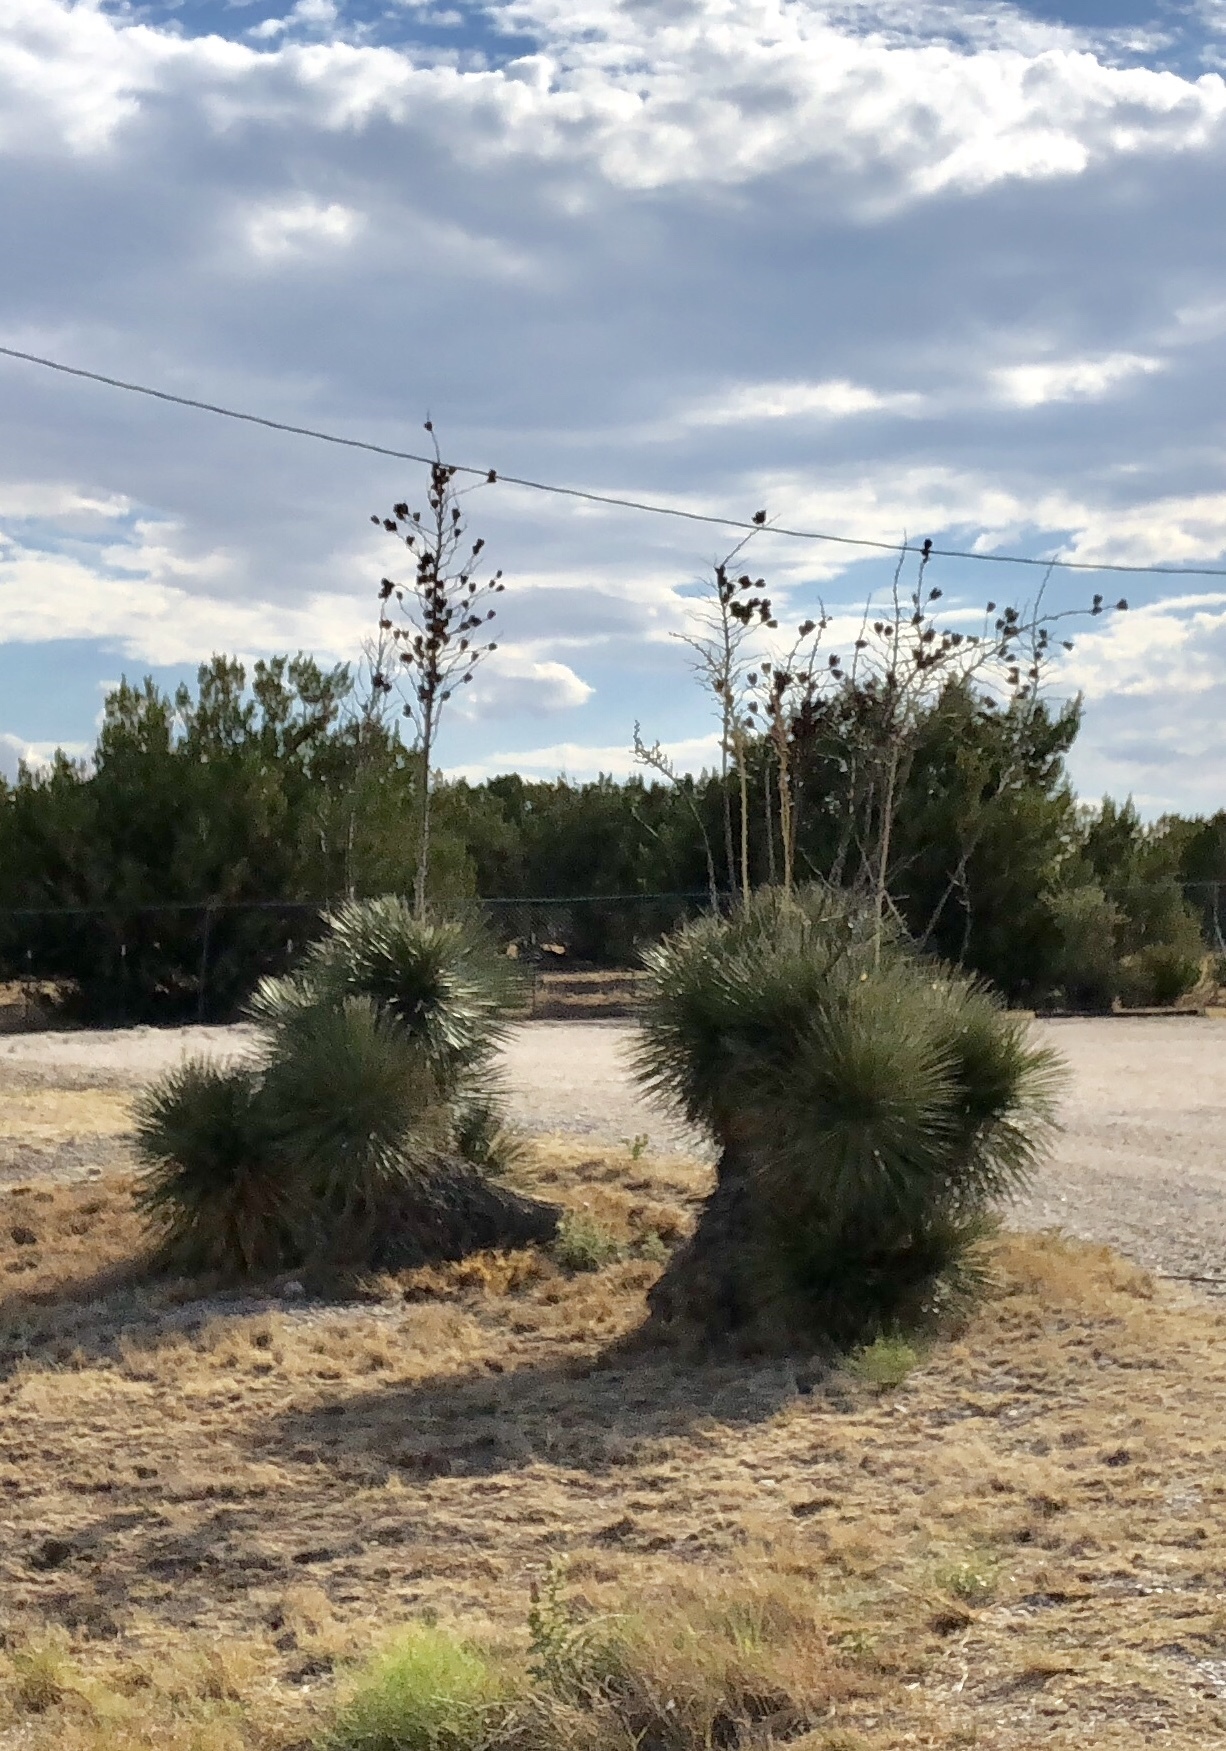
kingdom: Plantae
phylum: Tracheophyta
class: Liliopsida
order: Asparagales
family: Asparagaceae
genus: Yucca
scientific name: Yucca elata
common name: Palmella
